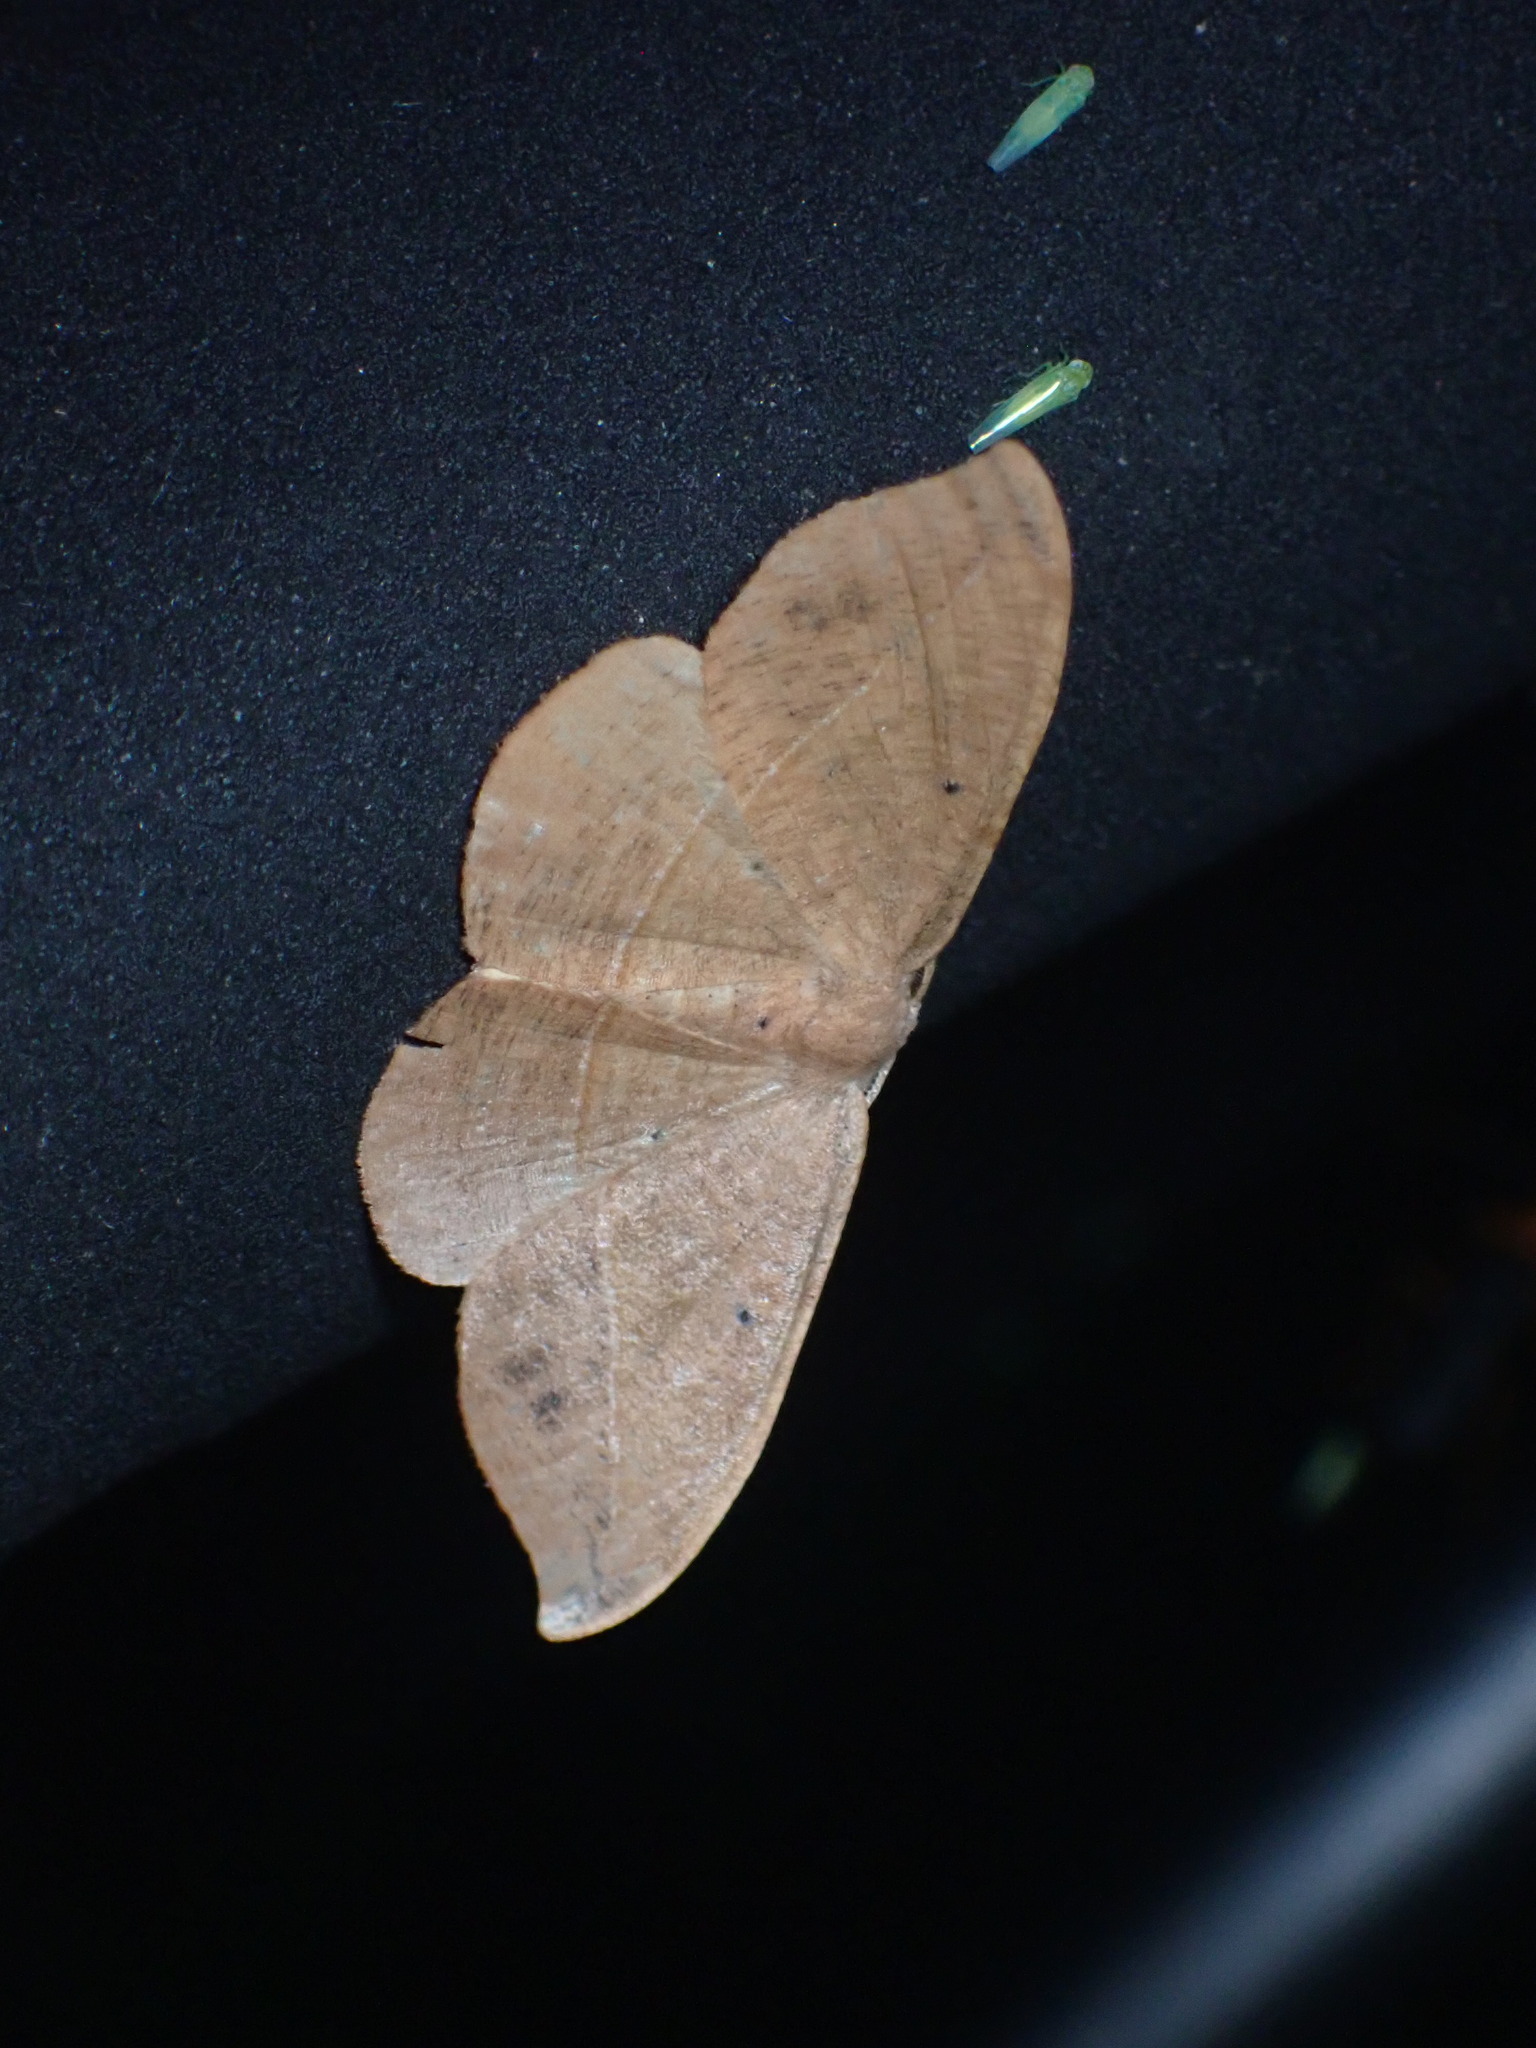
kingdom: Animalia
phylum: Arthropoda
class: Insecta
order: Lepidoptera
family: Geometridae
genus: Patalene
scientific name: Patalene olyzonaria
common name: Juniper geometer moth
